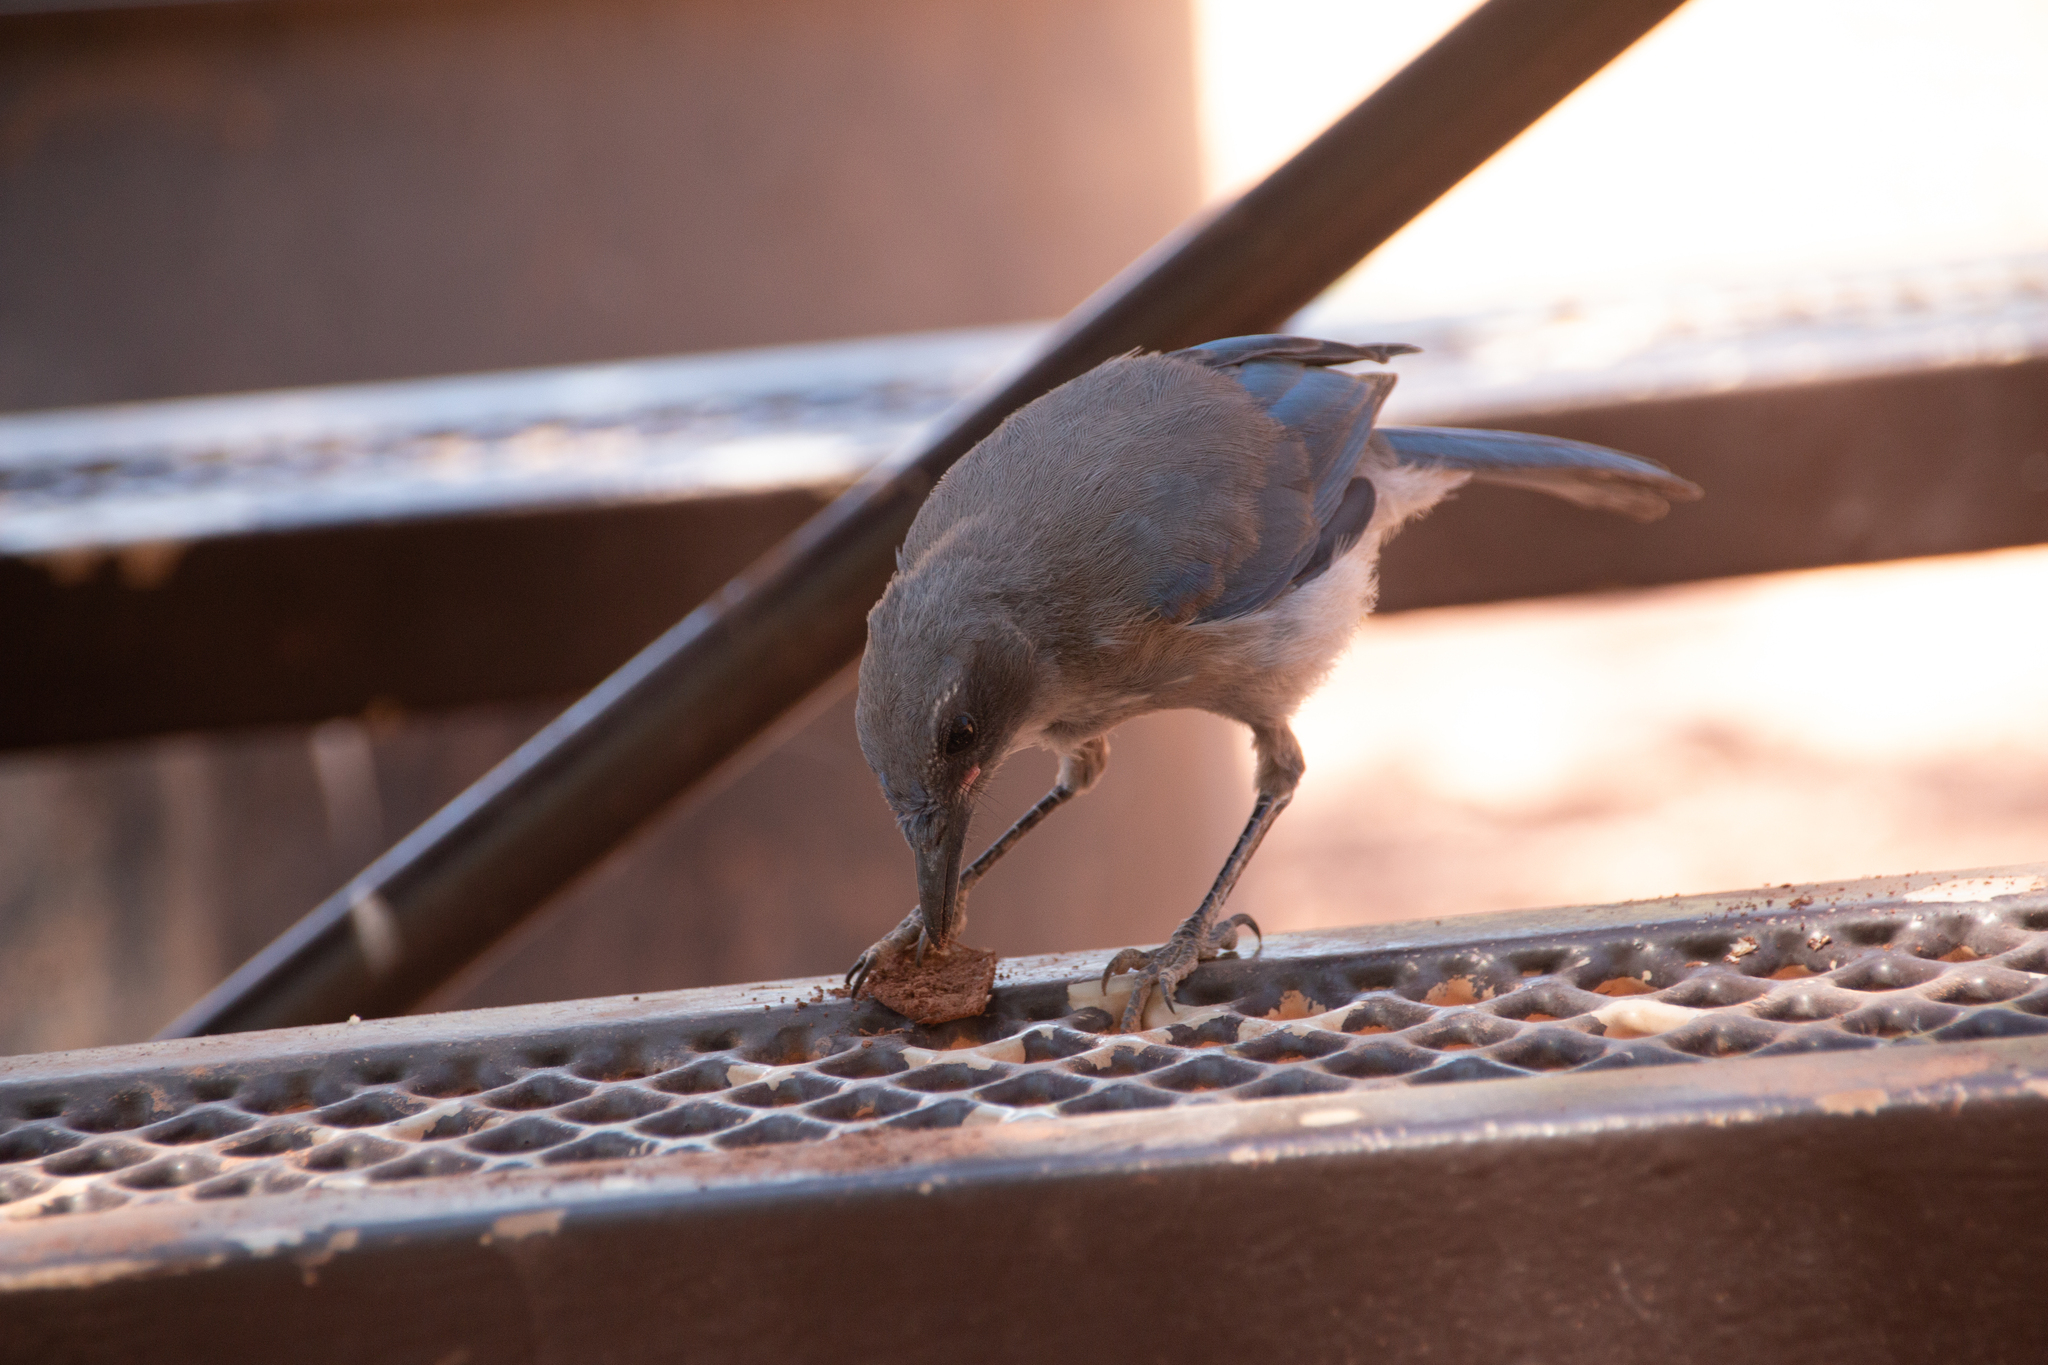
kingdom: Animalia
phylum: Chordata
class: Aves
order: Passeriformes
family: Corvidae
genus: Aphelocoma
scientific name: Aphelocoma woodhouseii
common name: Woodhouse's scrub-jay
